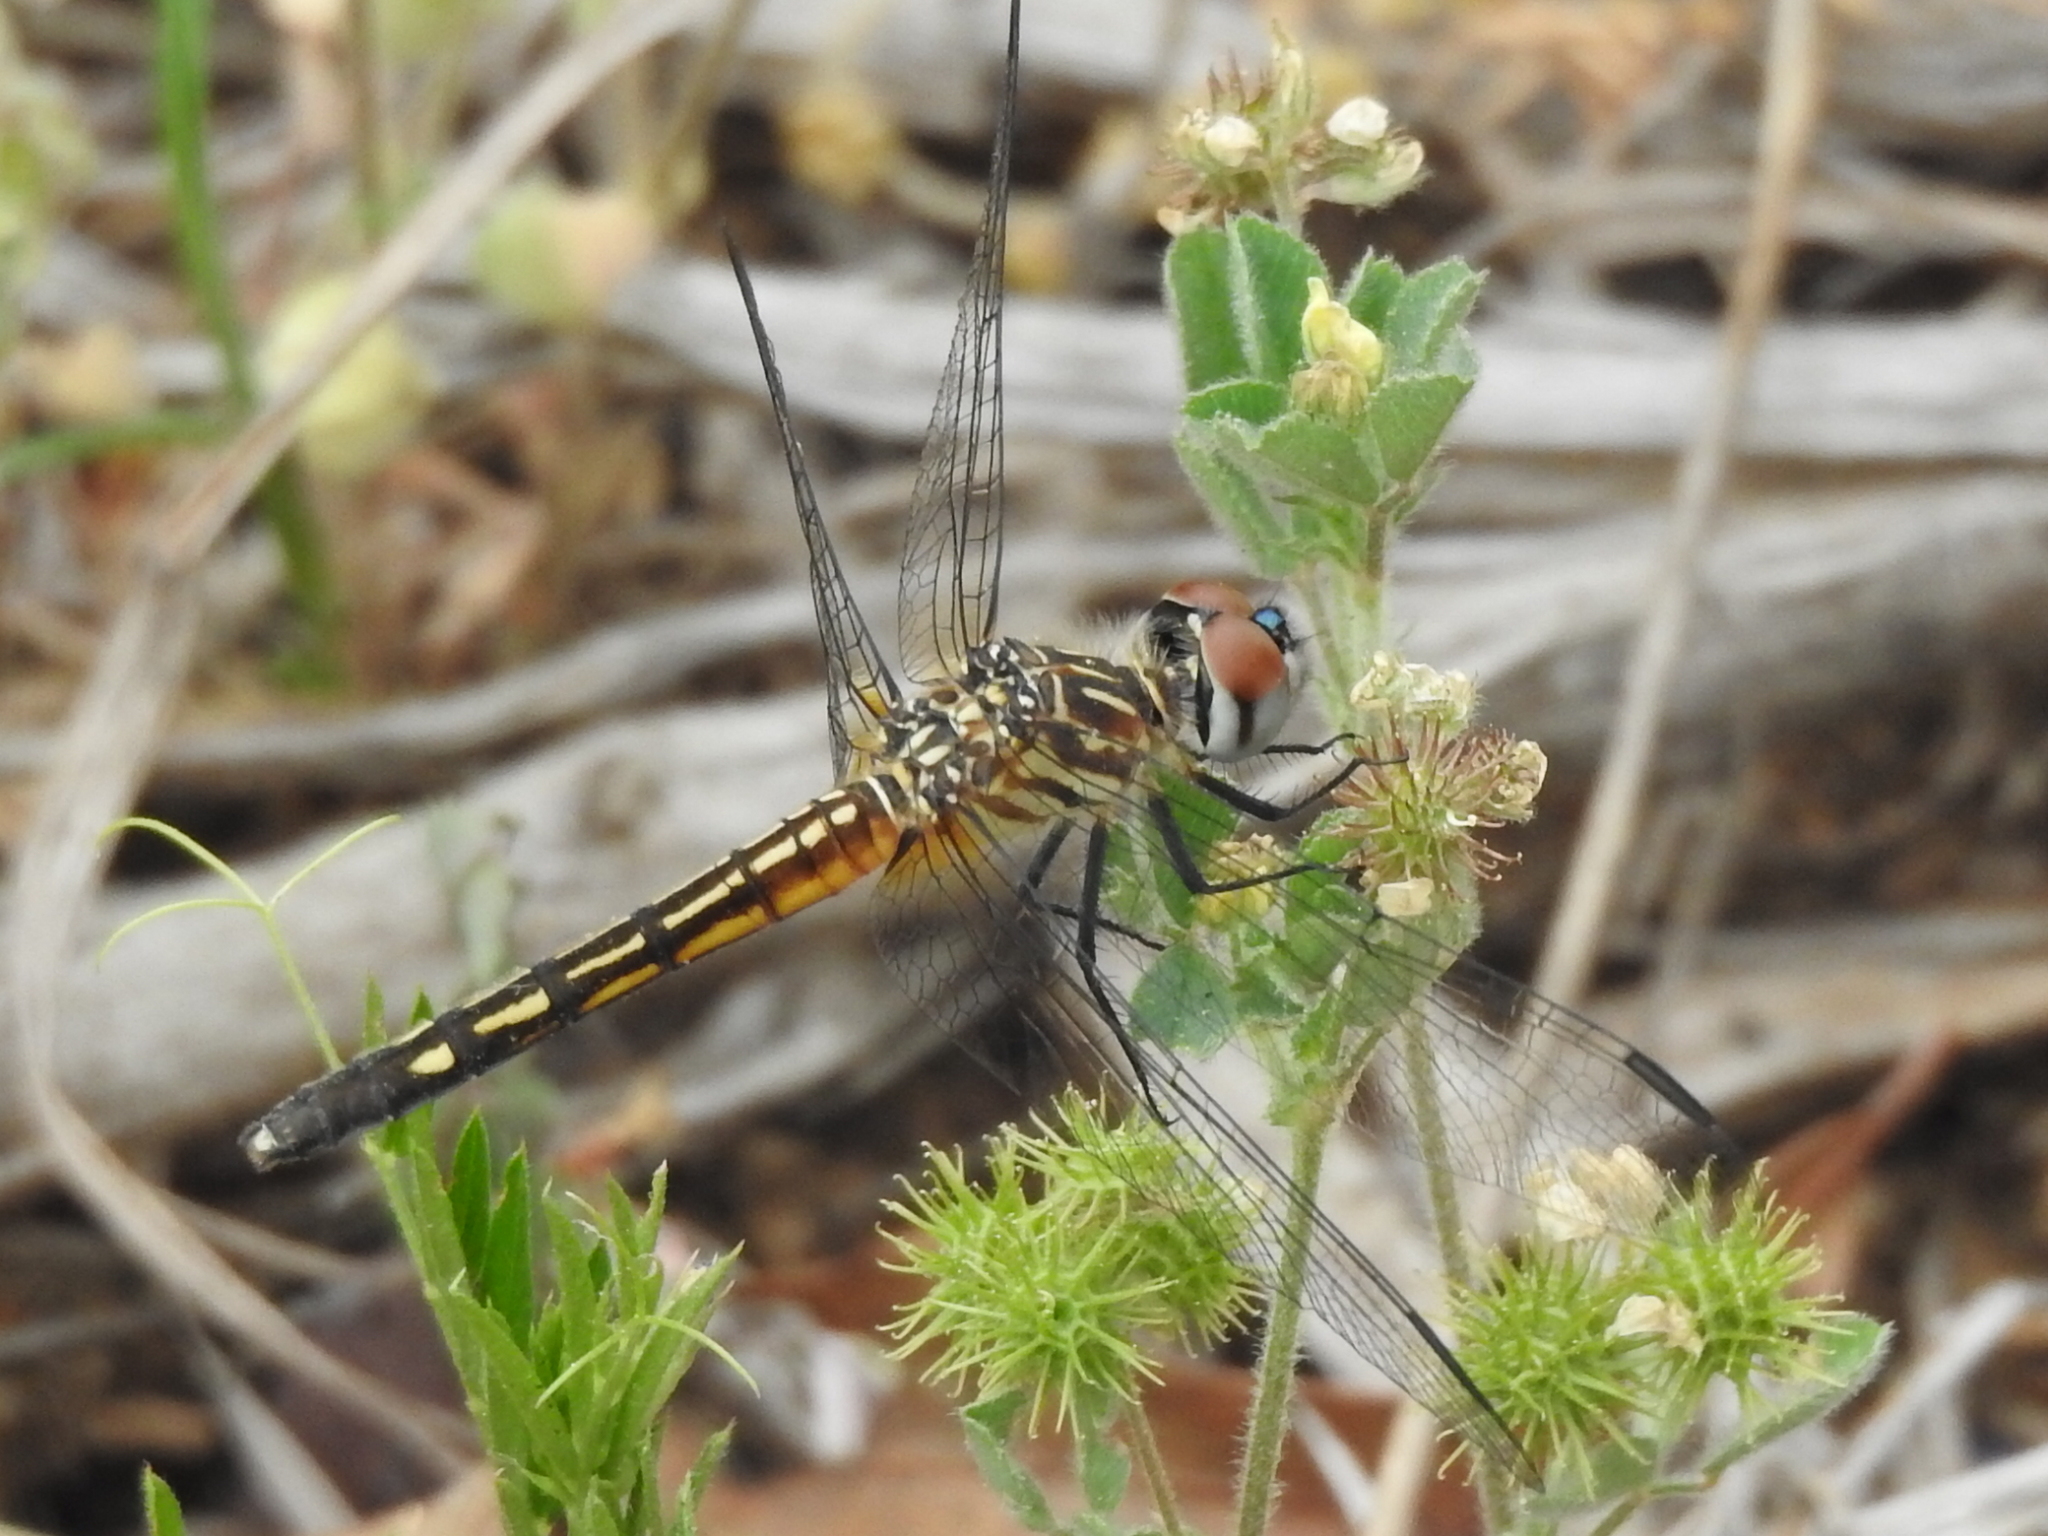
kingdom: Animalia
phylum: Arthropoda
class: Insecta
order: Odonata
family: Libellulidae
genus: Pachydiplax
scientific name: Pachydiplax longipennis
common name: Blue dasher
